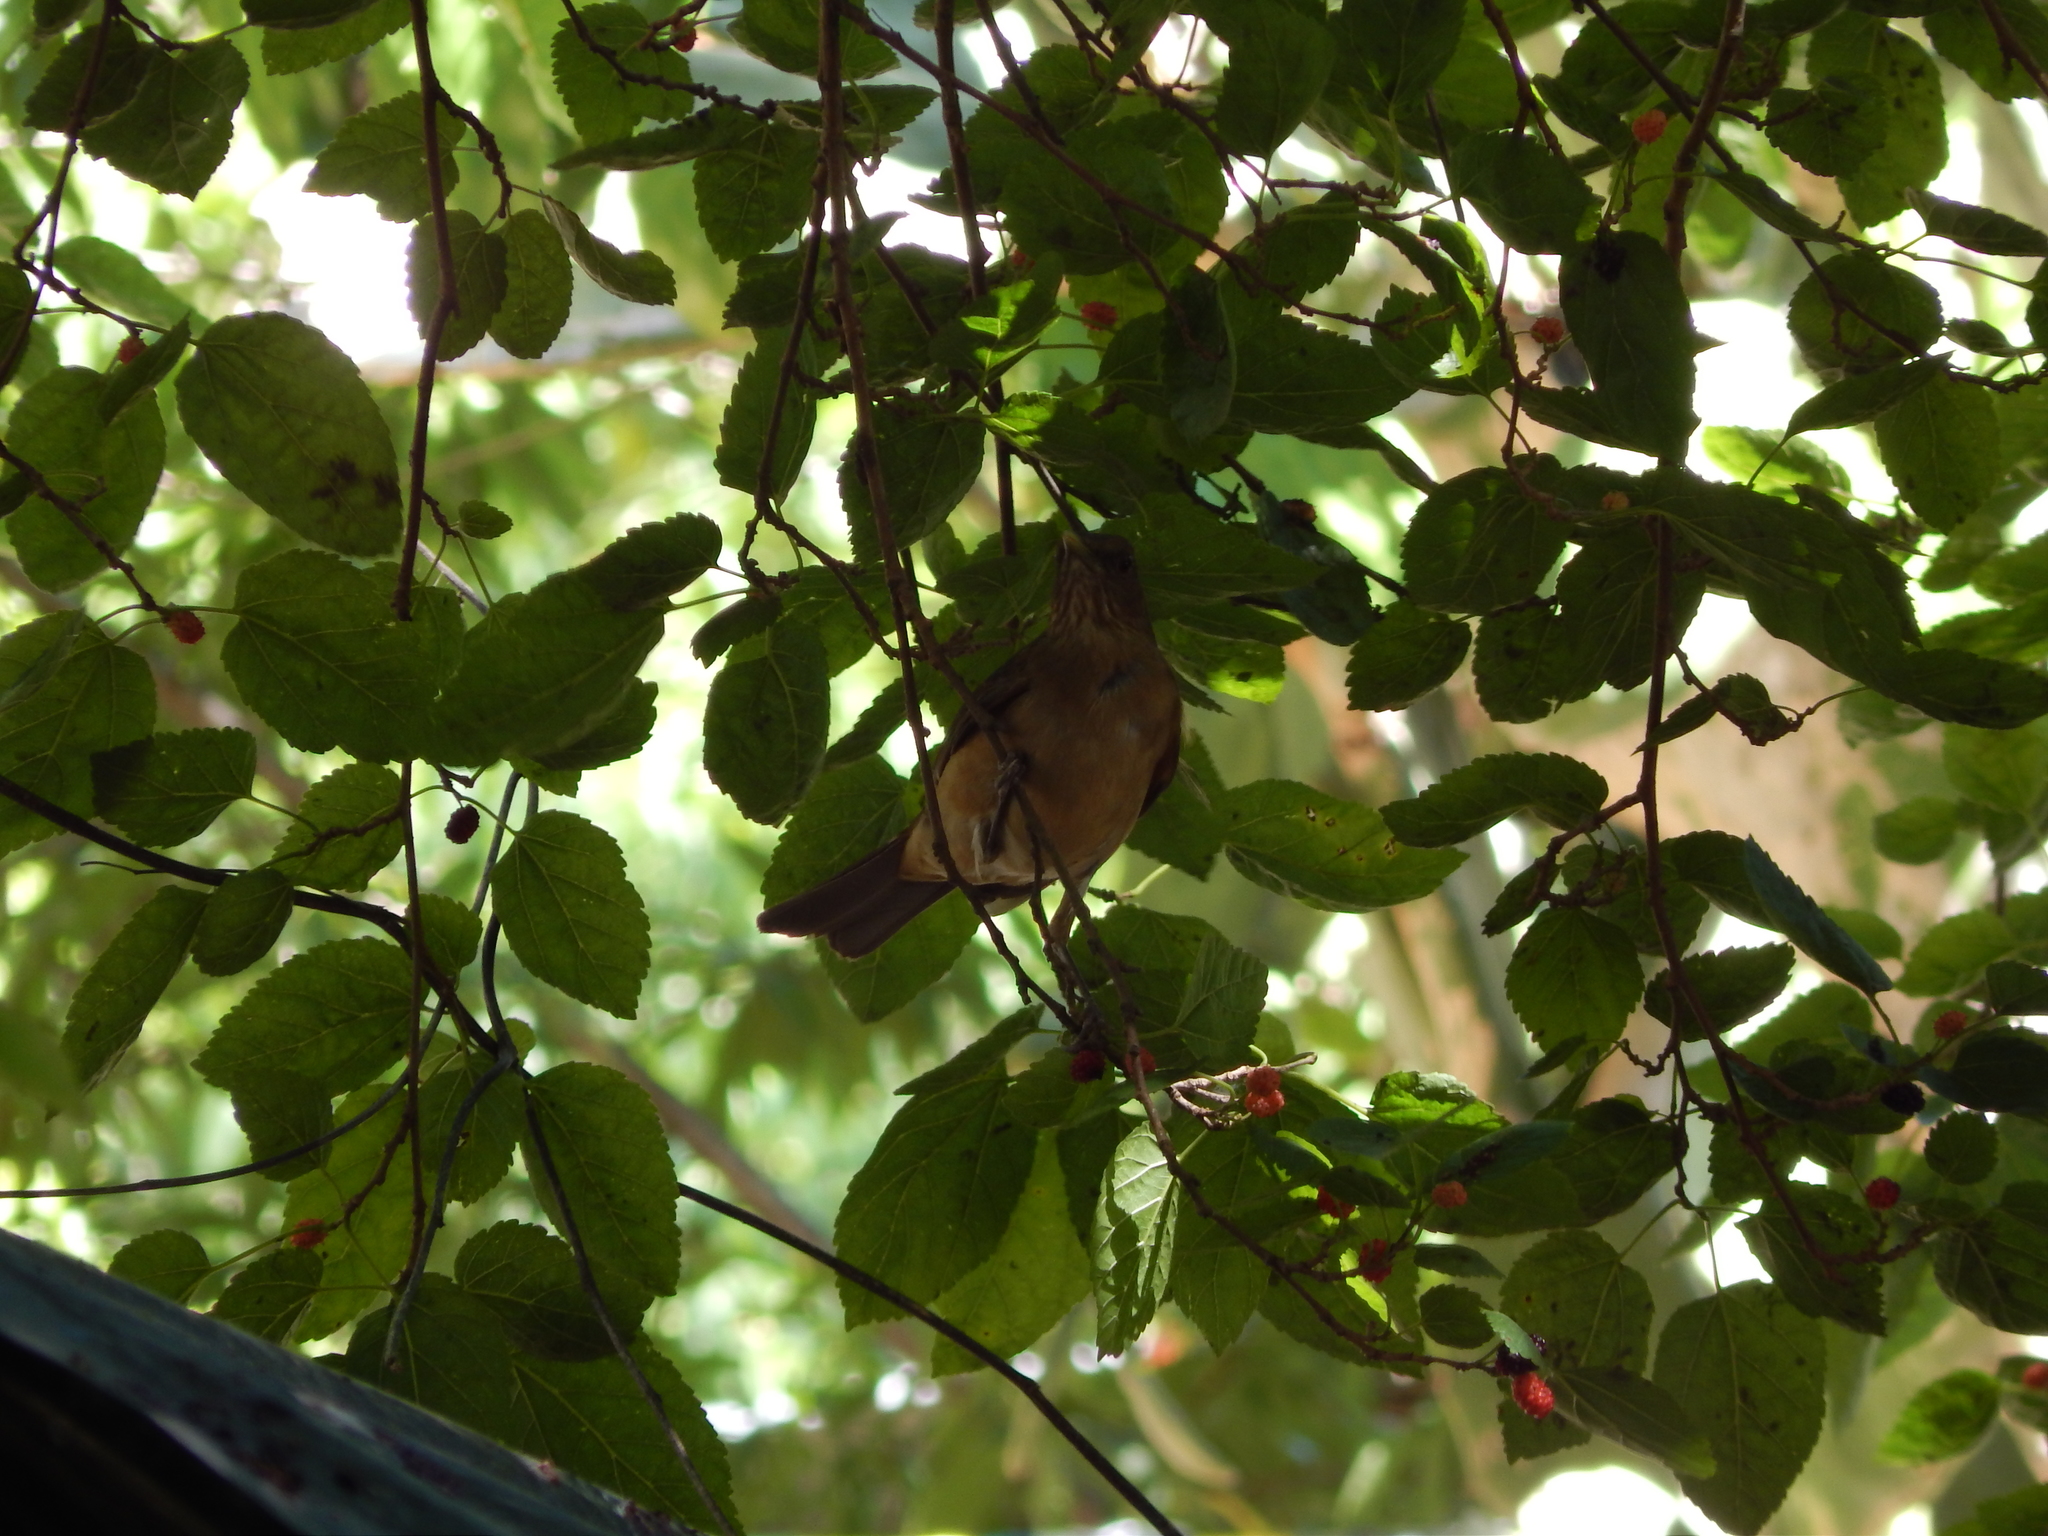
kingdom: Animalia
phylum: Chordata
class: Aves
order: Passeriformes
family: Turdidae
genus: Turdus
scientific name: Turdus grayi
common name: Clay-colored thrush
